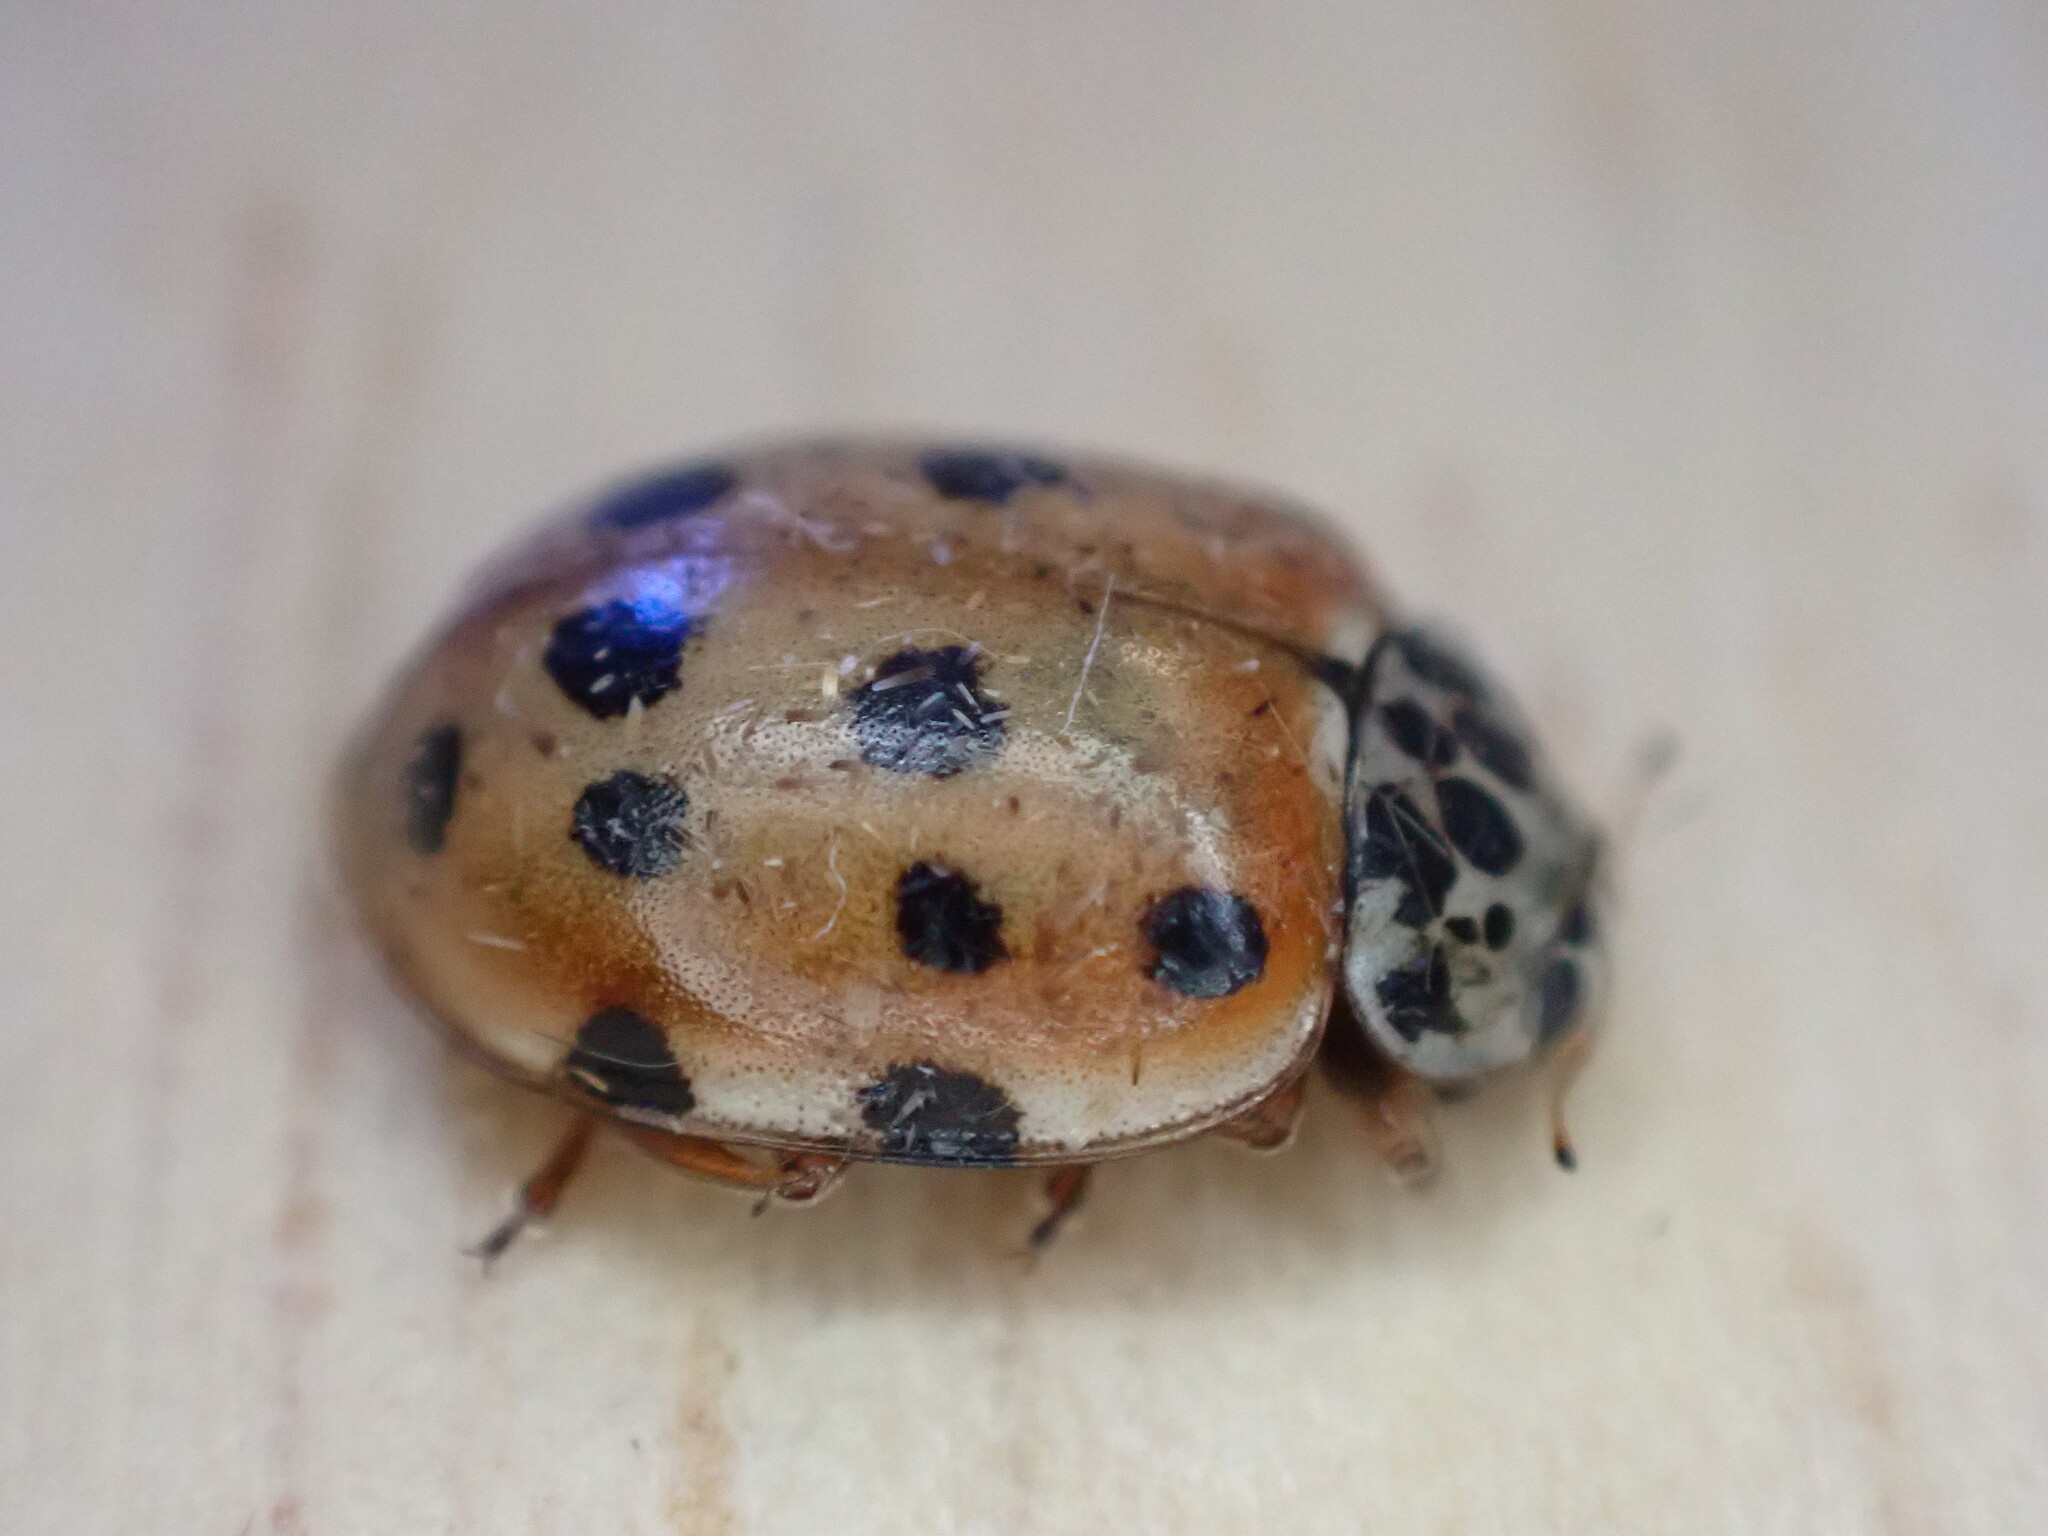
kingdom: Animalia
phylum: Arthropoda
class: Insecta
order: Coleoptera
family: Coccinellidae
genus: Harmonia
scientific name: Harmonia quadripunctata
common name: Cream-streaked ladybird
